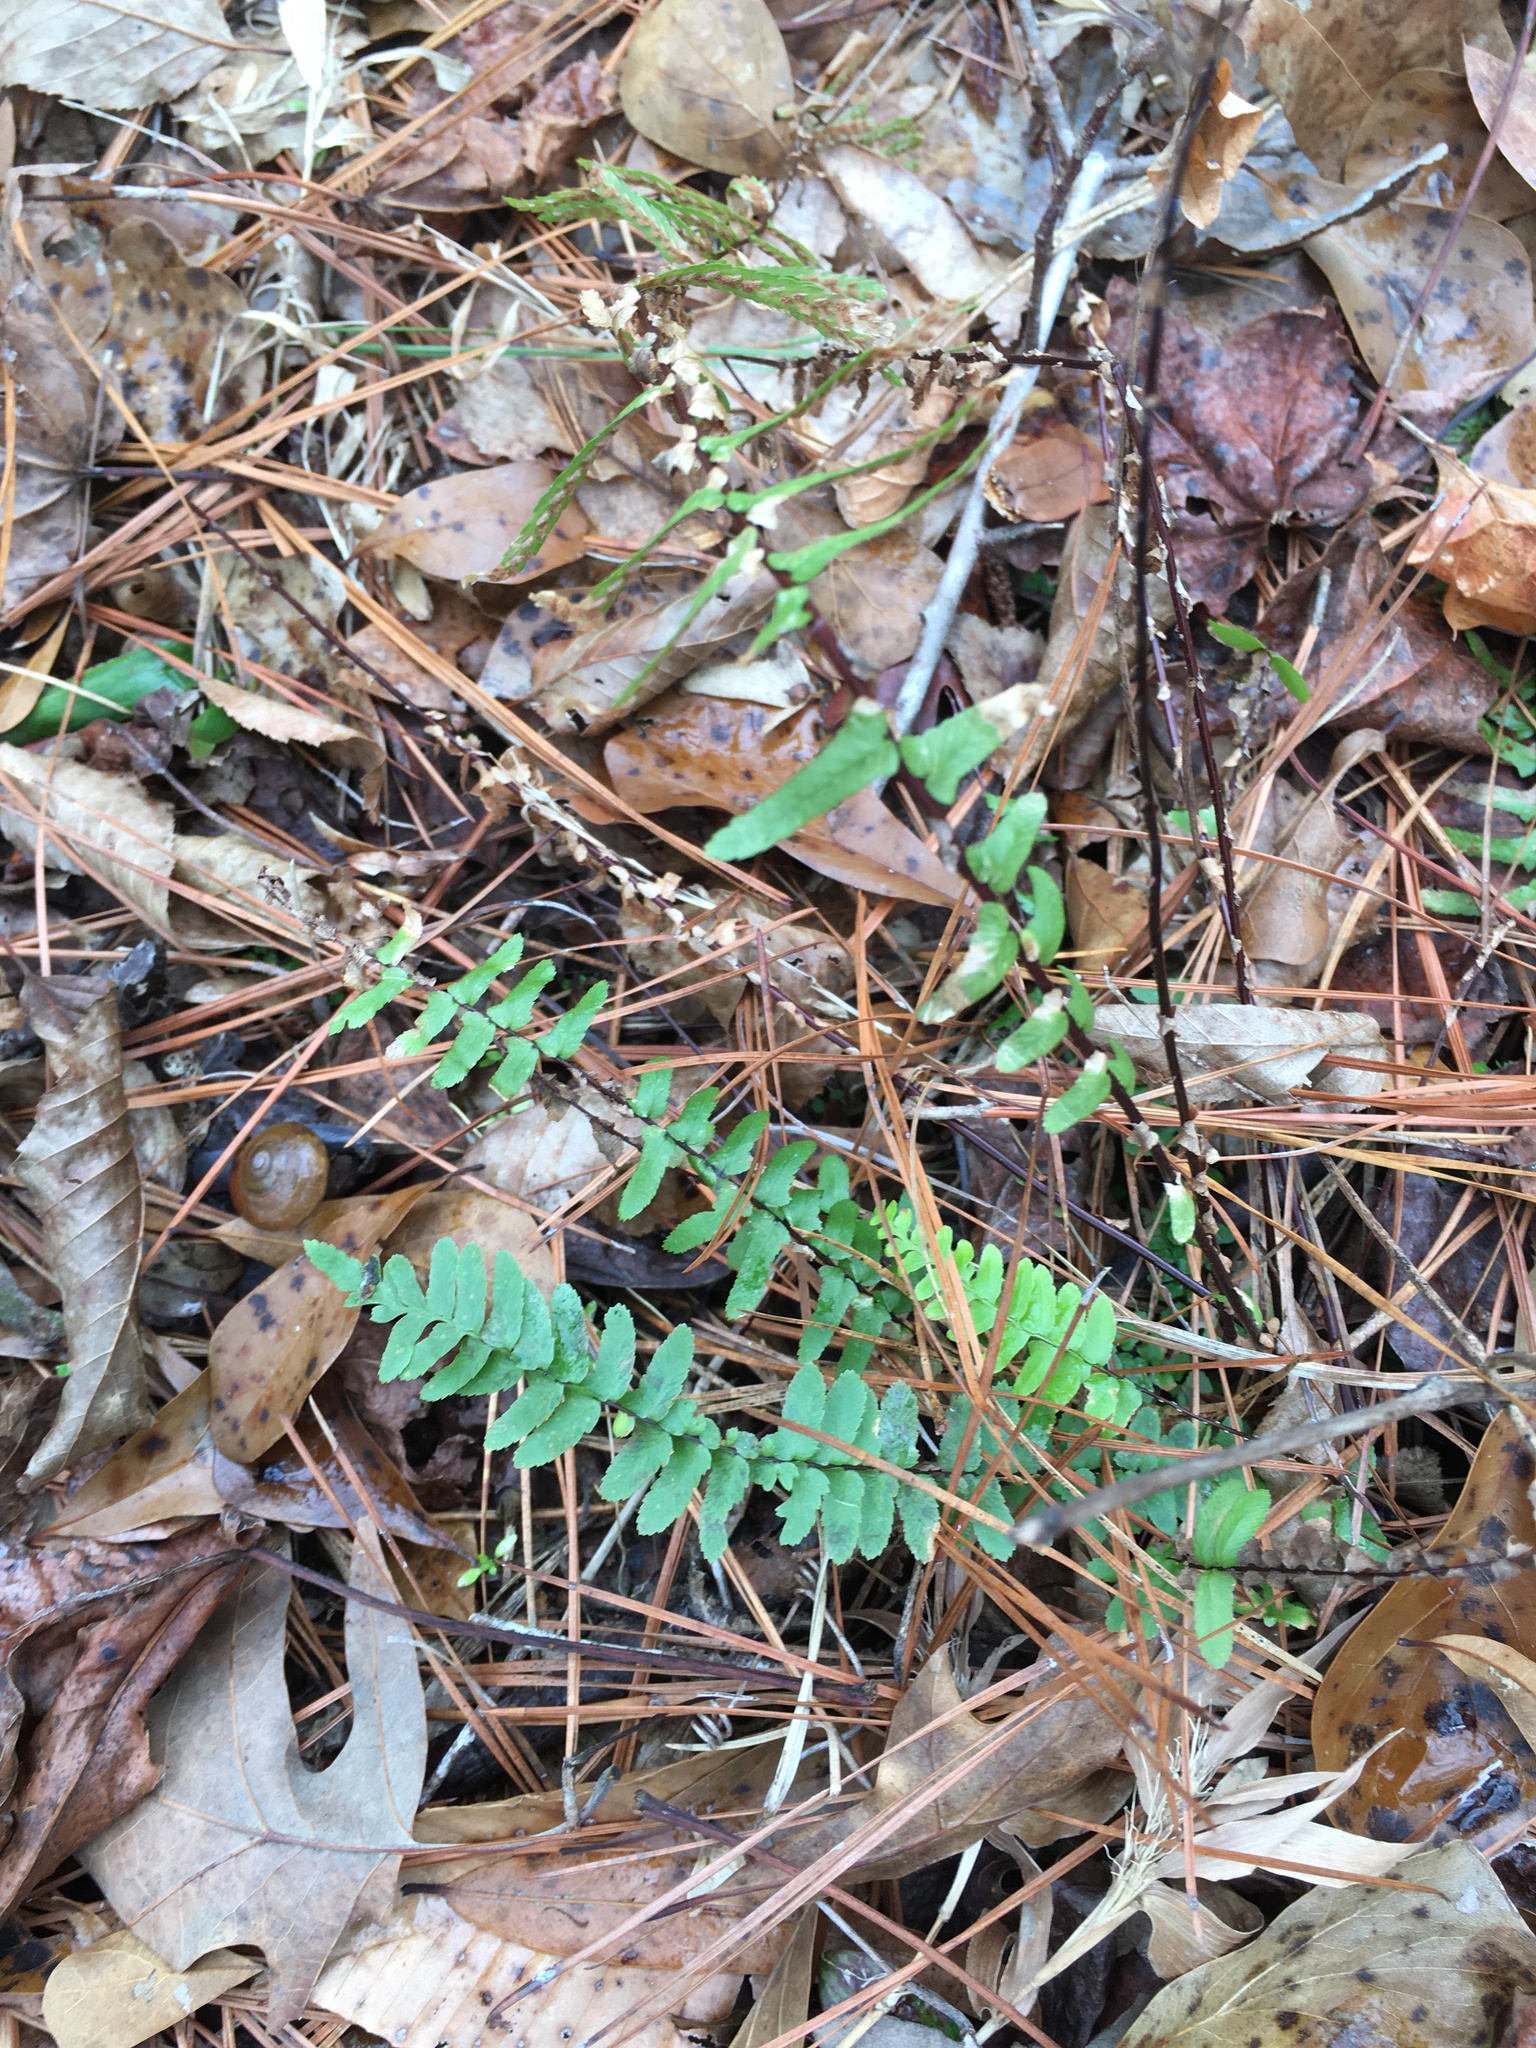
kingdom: Plantae
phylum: Tracheophyta
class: Polypodiopsida
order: Polypodiales
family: Aspleniaceae
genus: Asplenium
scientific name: Asplenium platyneuron
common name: Ebony spleenwort
